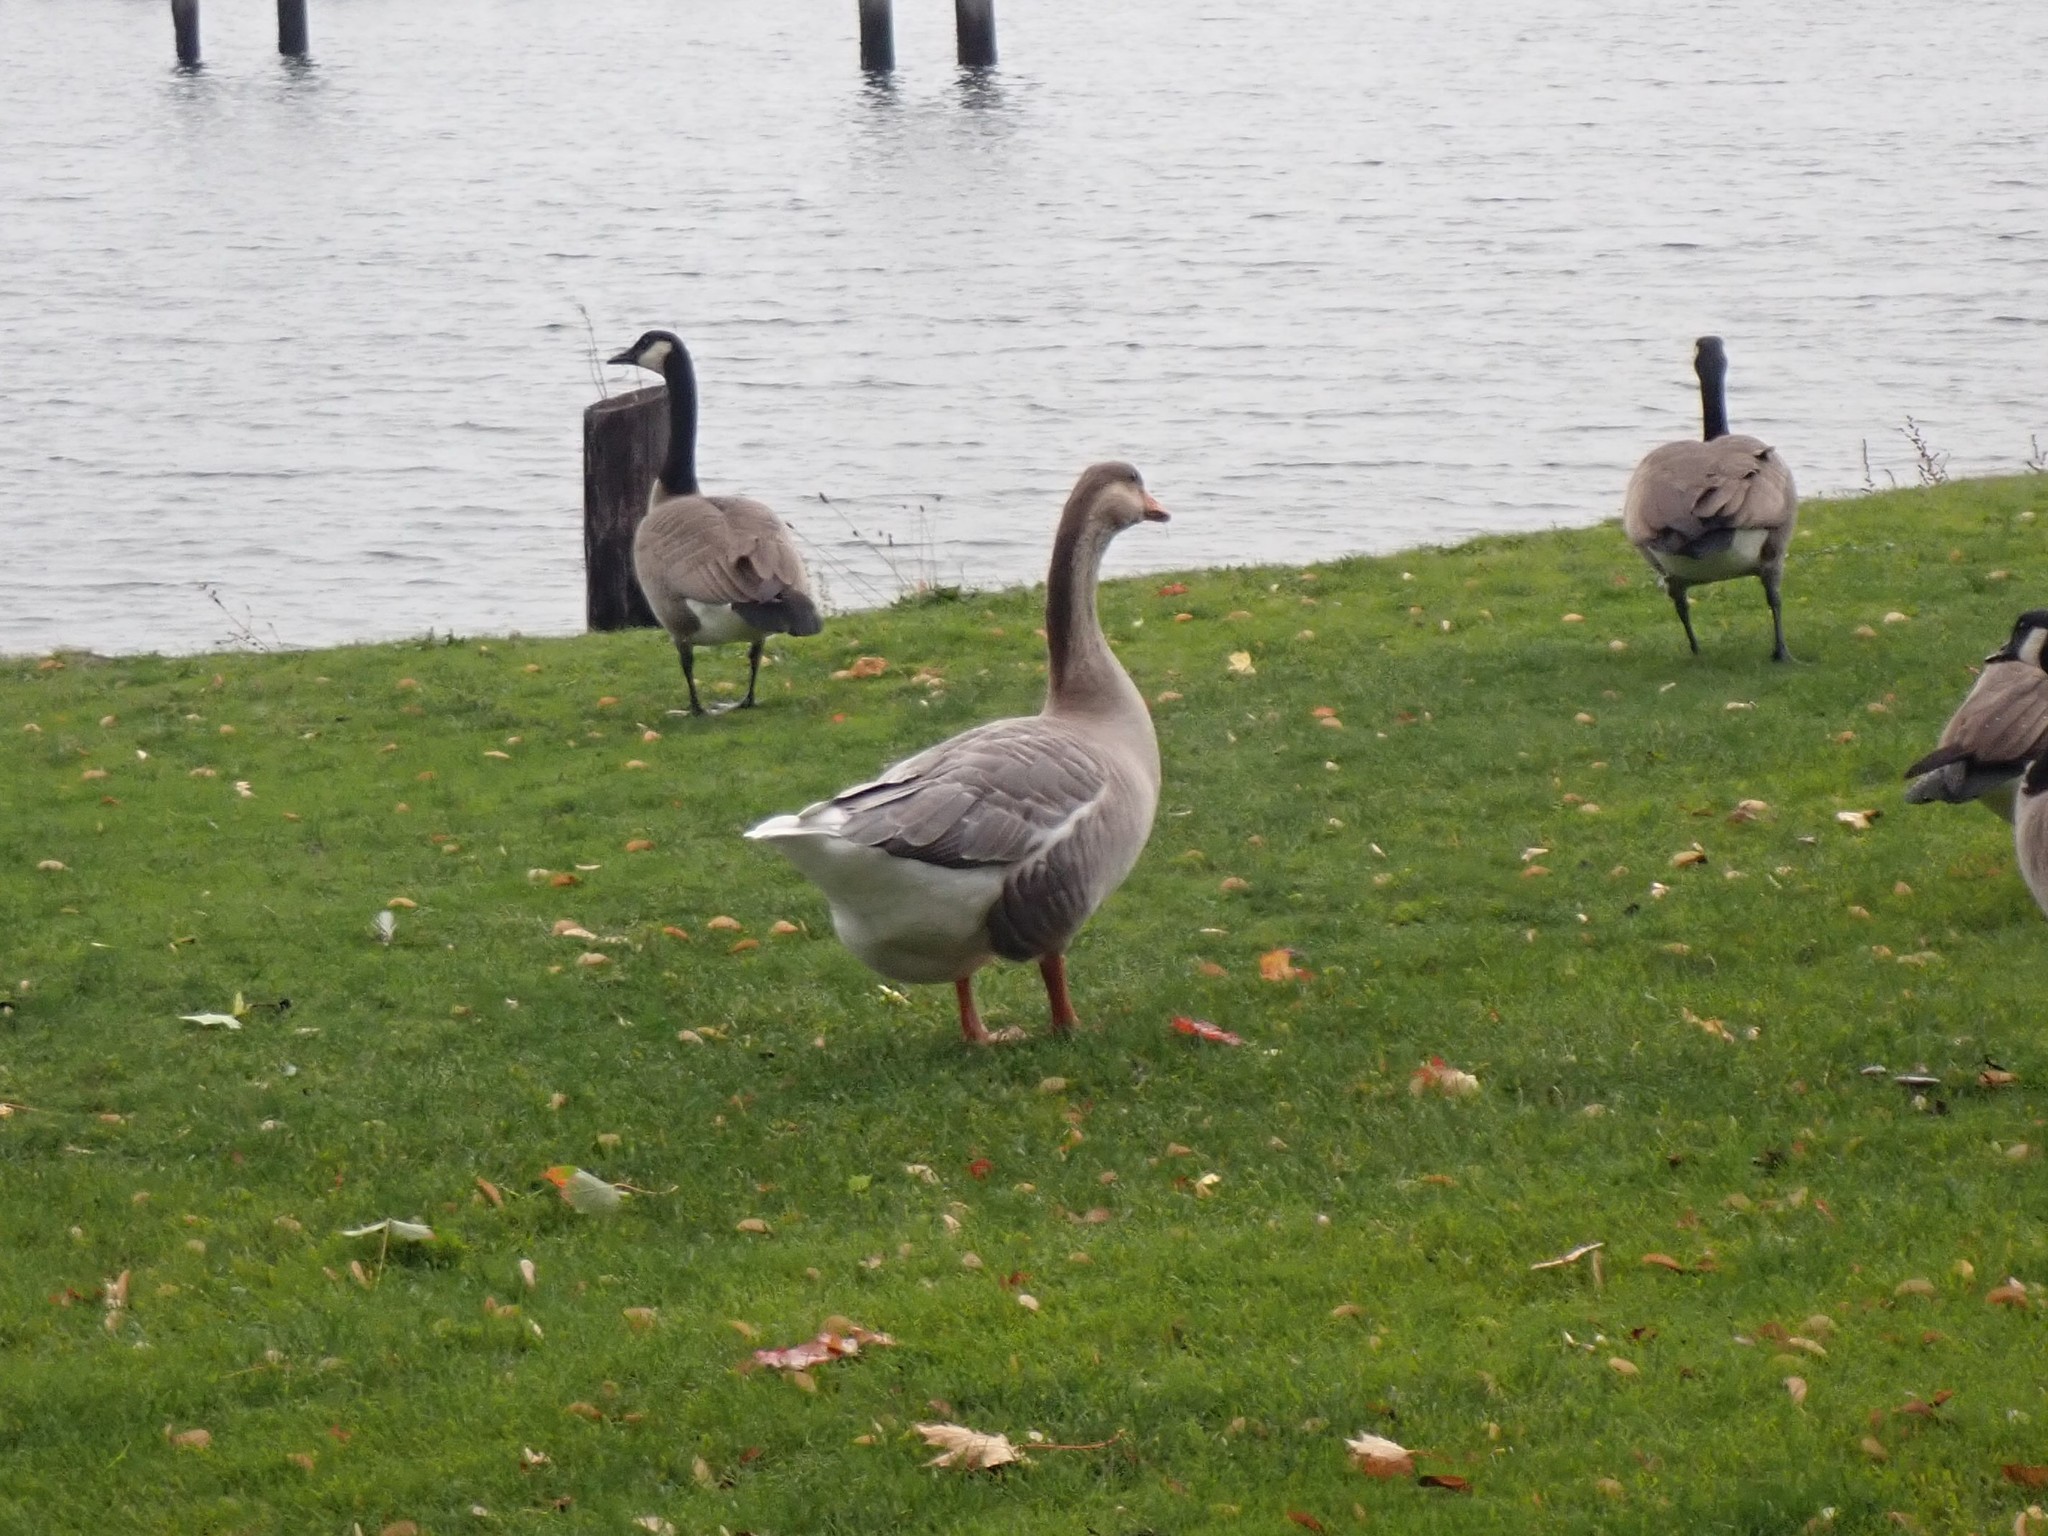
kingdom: Animalia
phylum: Chordata
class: Aves
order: Anseriformes
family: Anatidae
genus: Anser
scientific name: Anser
